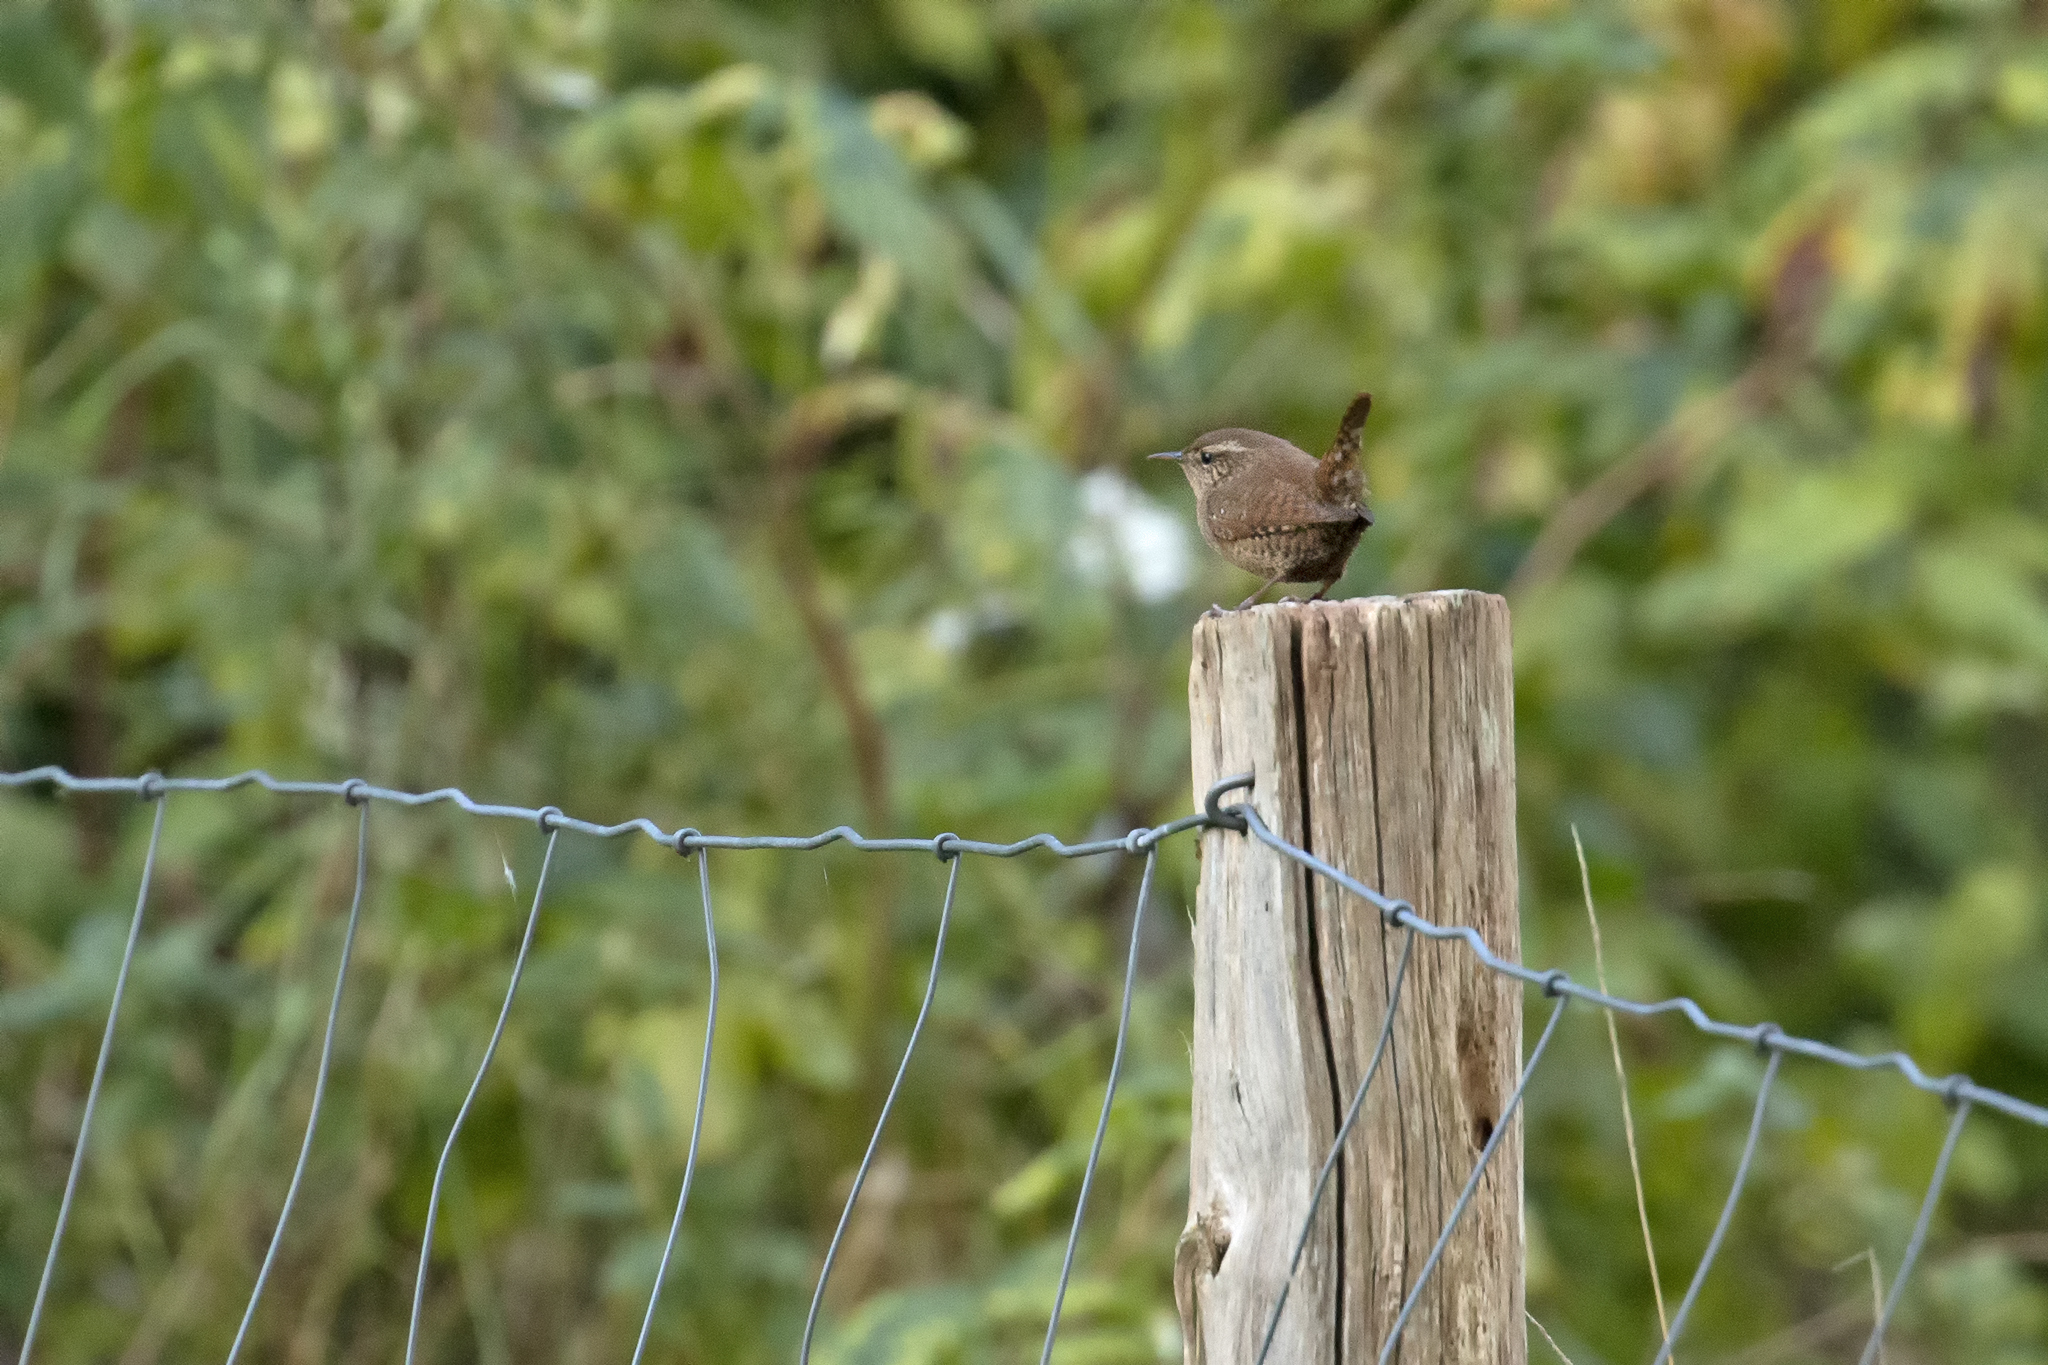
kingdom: Animalia
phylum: Chordata
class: Aves
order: Passeriformes
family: Troglodytidae
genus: Troglodytes
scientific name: Troglodytes troglodytes
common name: Eurasian wren
